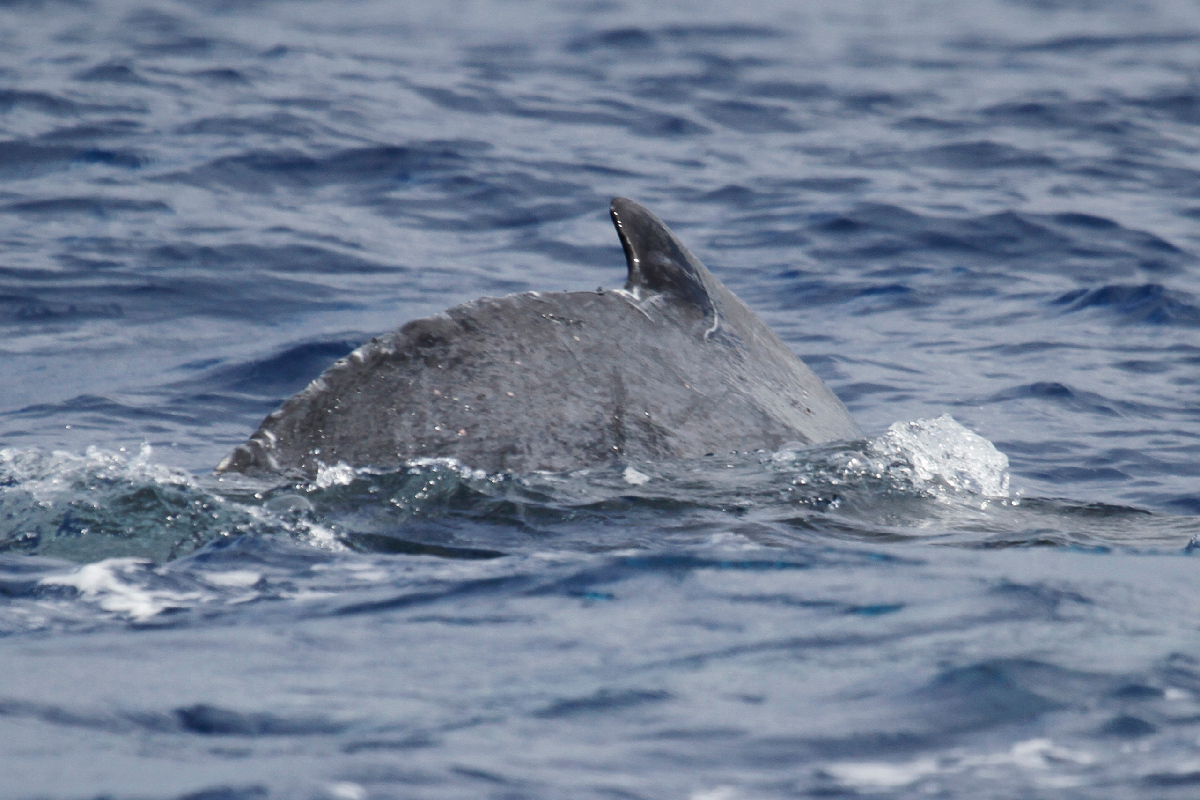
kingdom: Animalia
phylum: Chordata
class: Mammalia
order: Cetacea
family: Balaenopteridae
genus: Megaptera
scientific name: Megaptera novaeangliae
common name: Humpback whale
